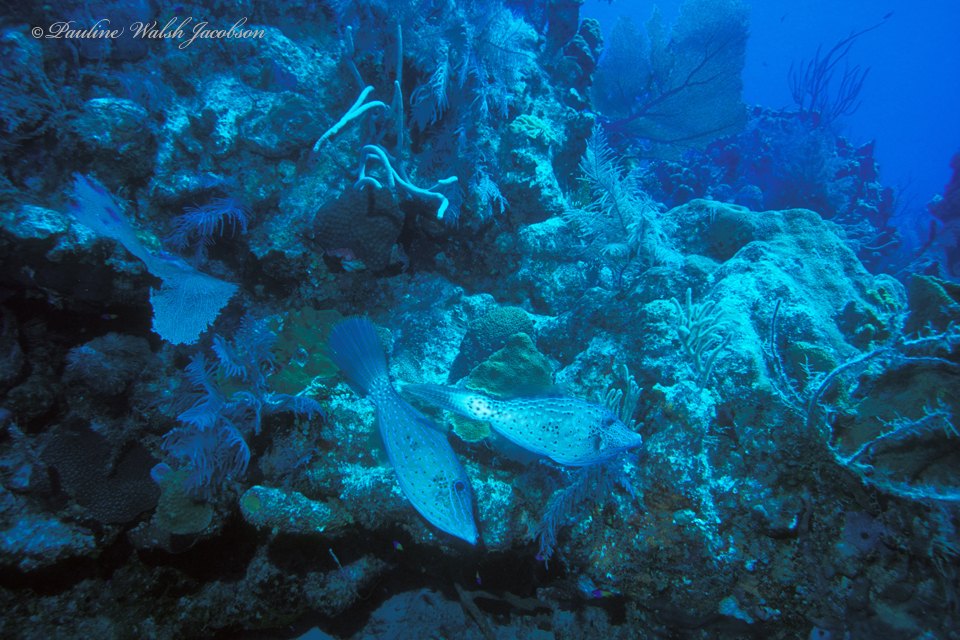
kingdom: Animalia
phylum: Chordata
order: Tetraodontiformes
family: Monacanthidae
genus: Aluterus
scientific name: Aluterus scriptus
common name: Scribbled leatherjacket filefish
